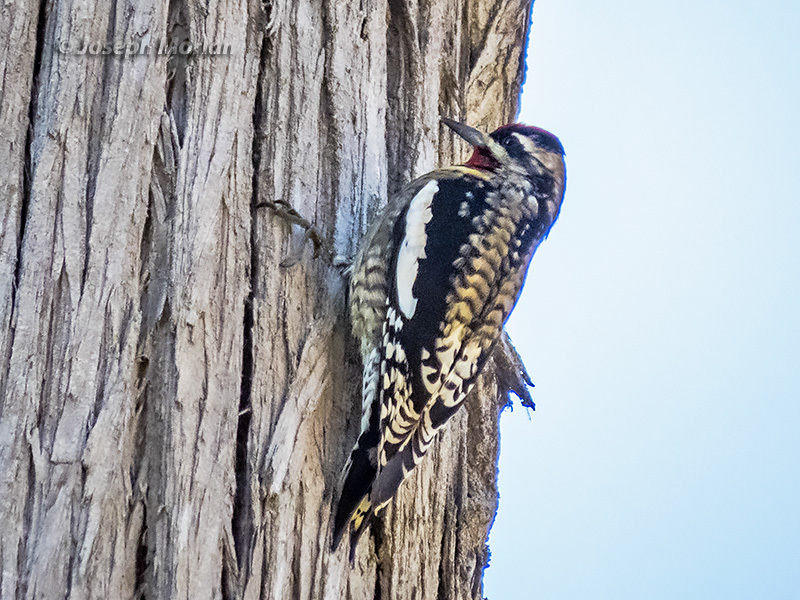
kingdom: Animalia
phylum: Chordata
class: Aves
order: Piciformes
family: Picidae
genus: Sphyrapicus
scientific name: Sphyrapicus varius
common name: Yellow-bellied sapsucker
